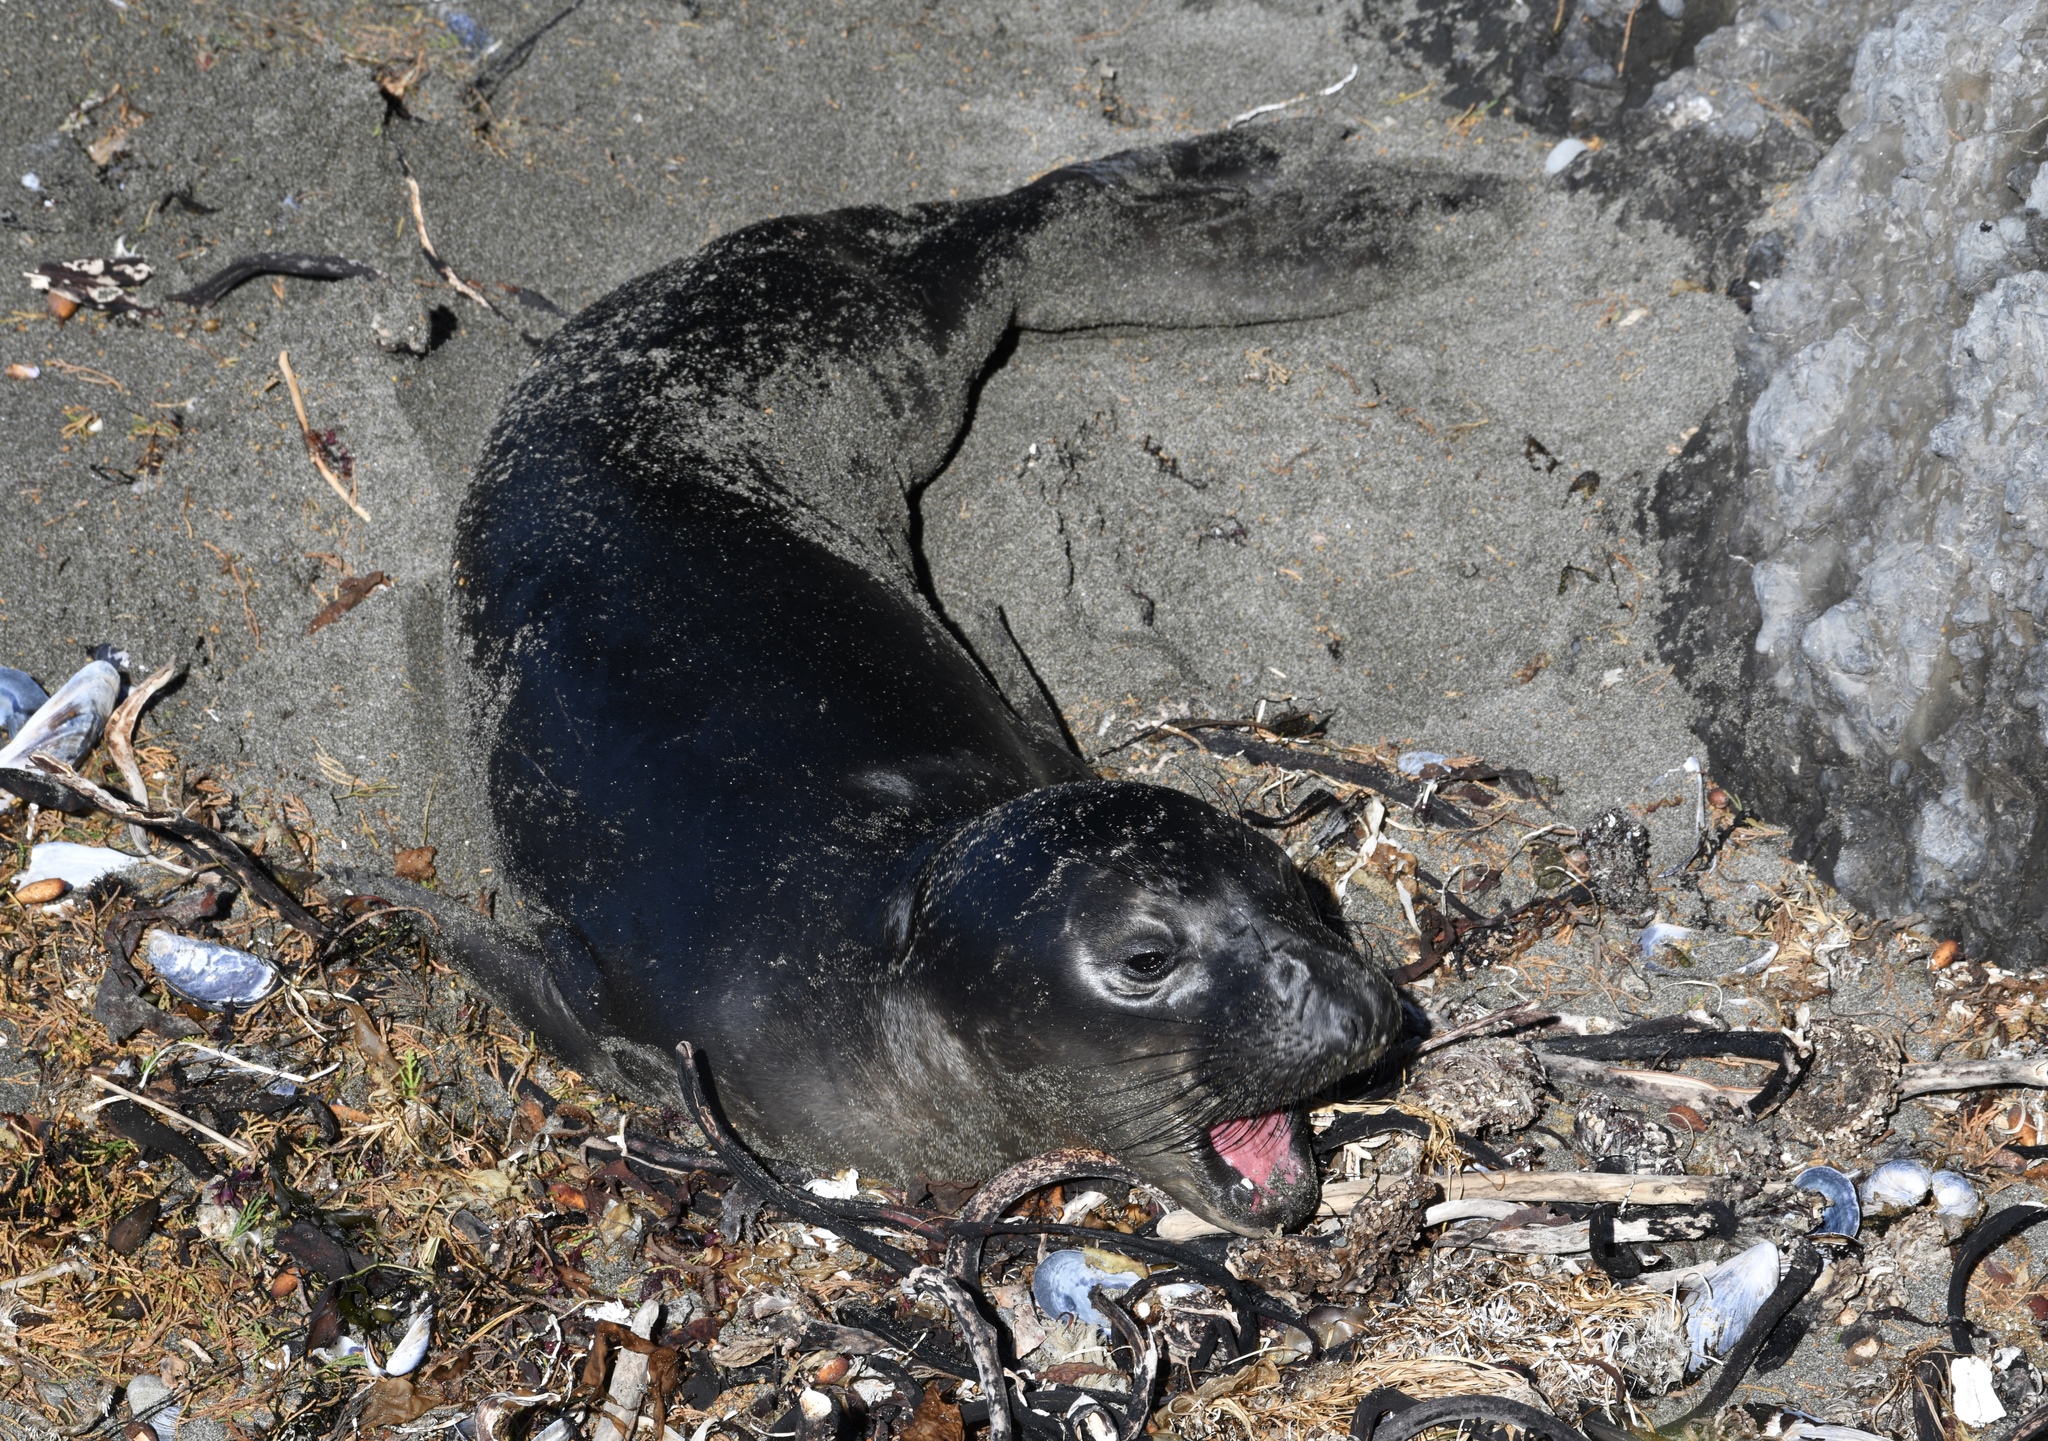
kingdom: Animalia
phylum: Chordata
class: Mammalia
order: Carnivora
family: Phocidae
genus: Mirounga
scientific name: Mirounga angustirostris
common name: Northern elephant seal
